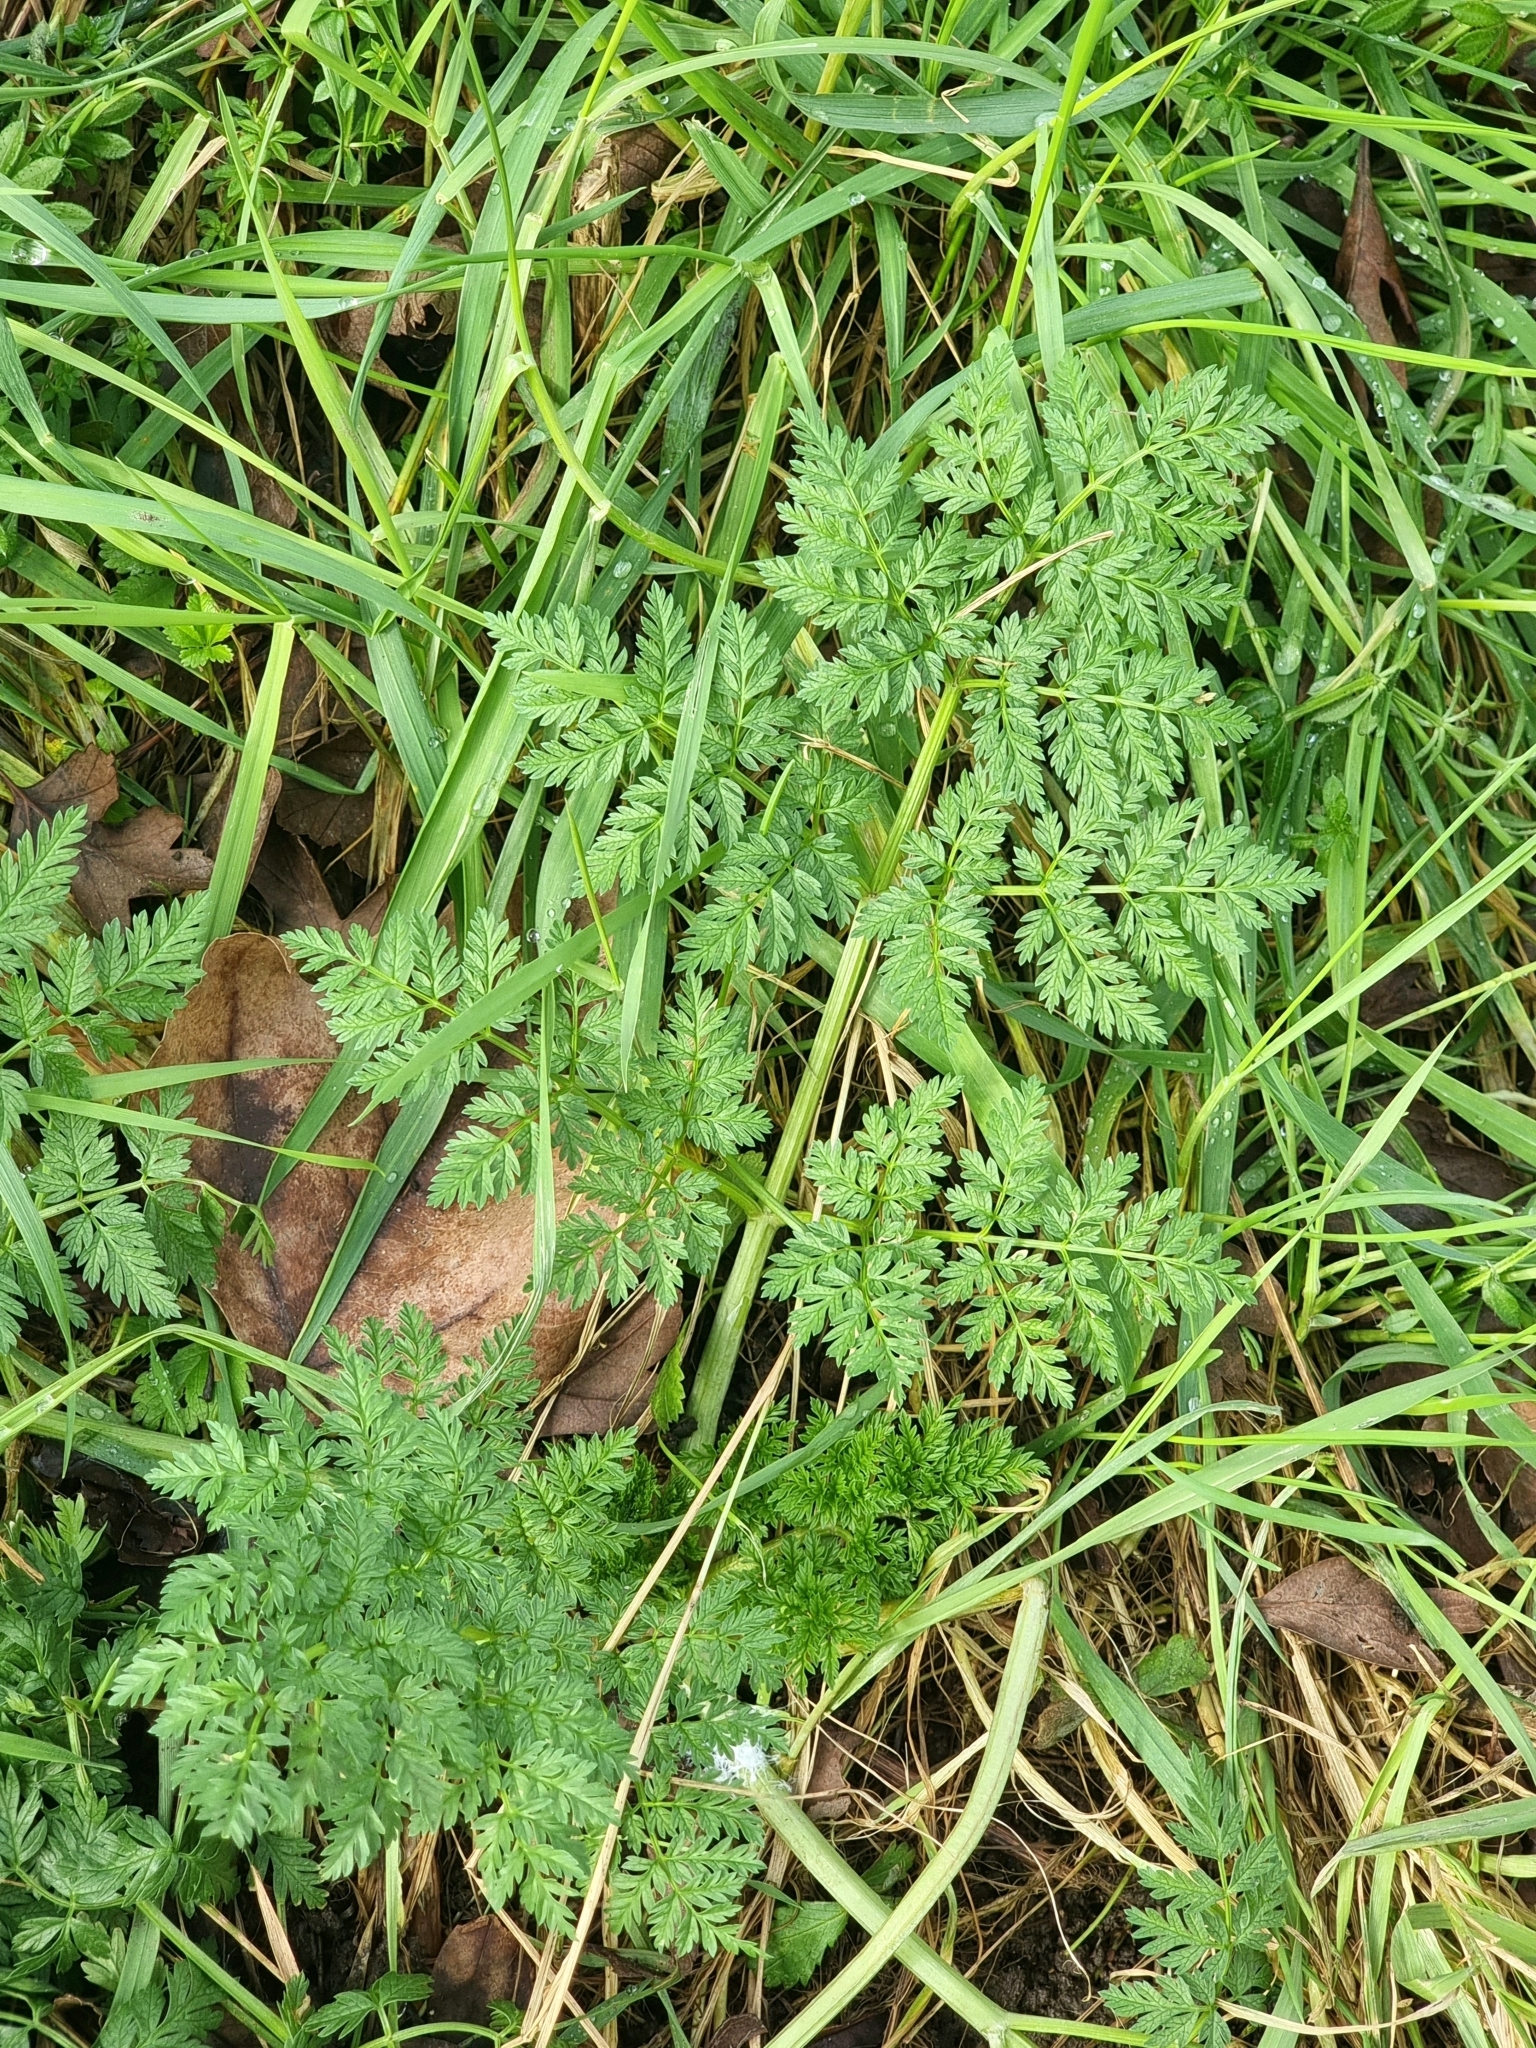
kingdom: Plantae
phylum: Tracheophyta
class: Magnoliopsida
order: Apiales
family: Apiaceae
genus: Conium
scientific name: Conium maculatum
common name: Hemlock
